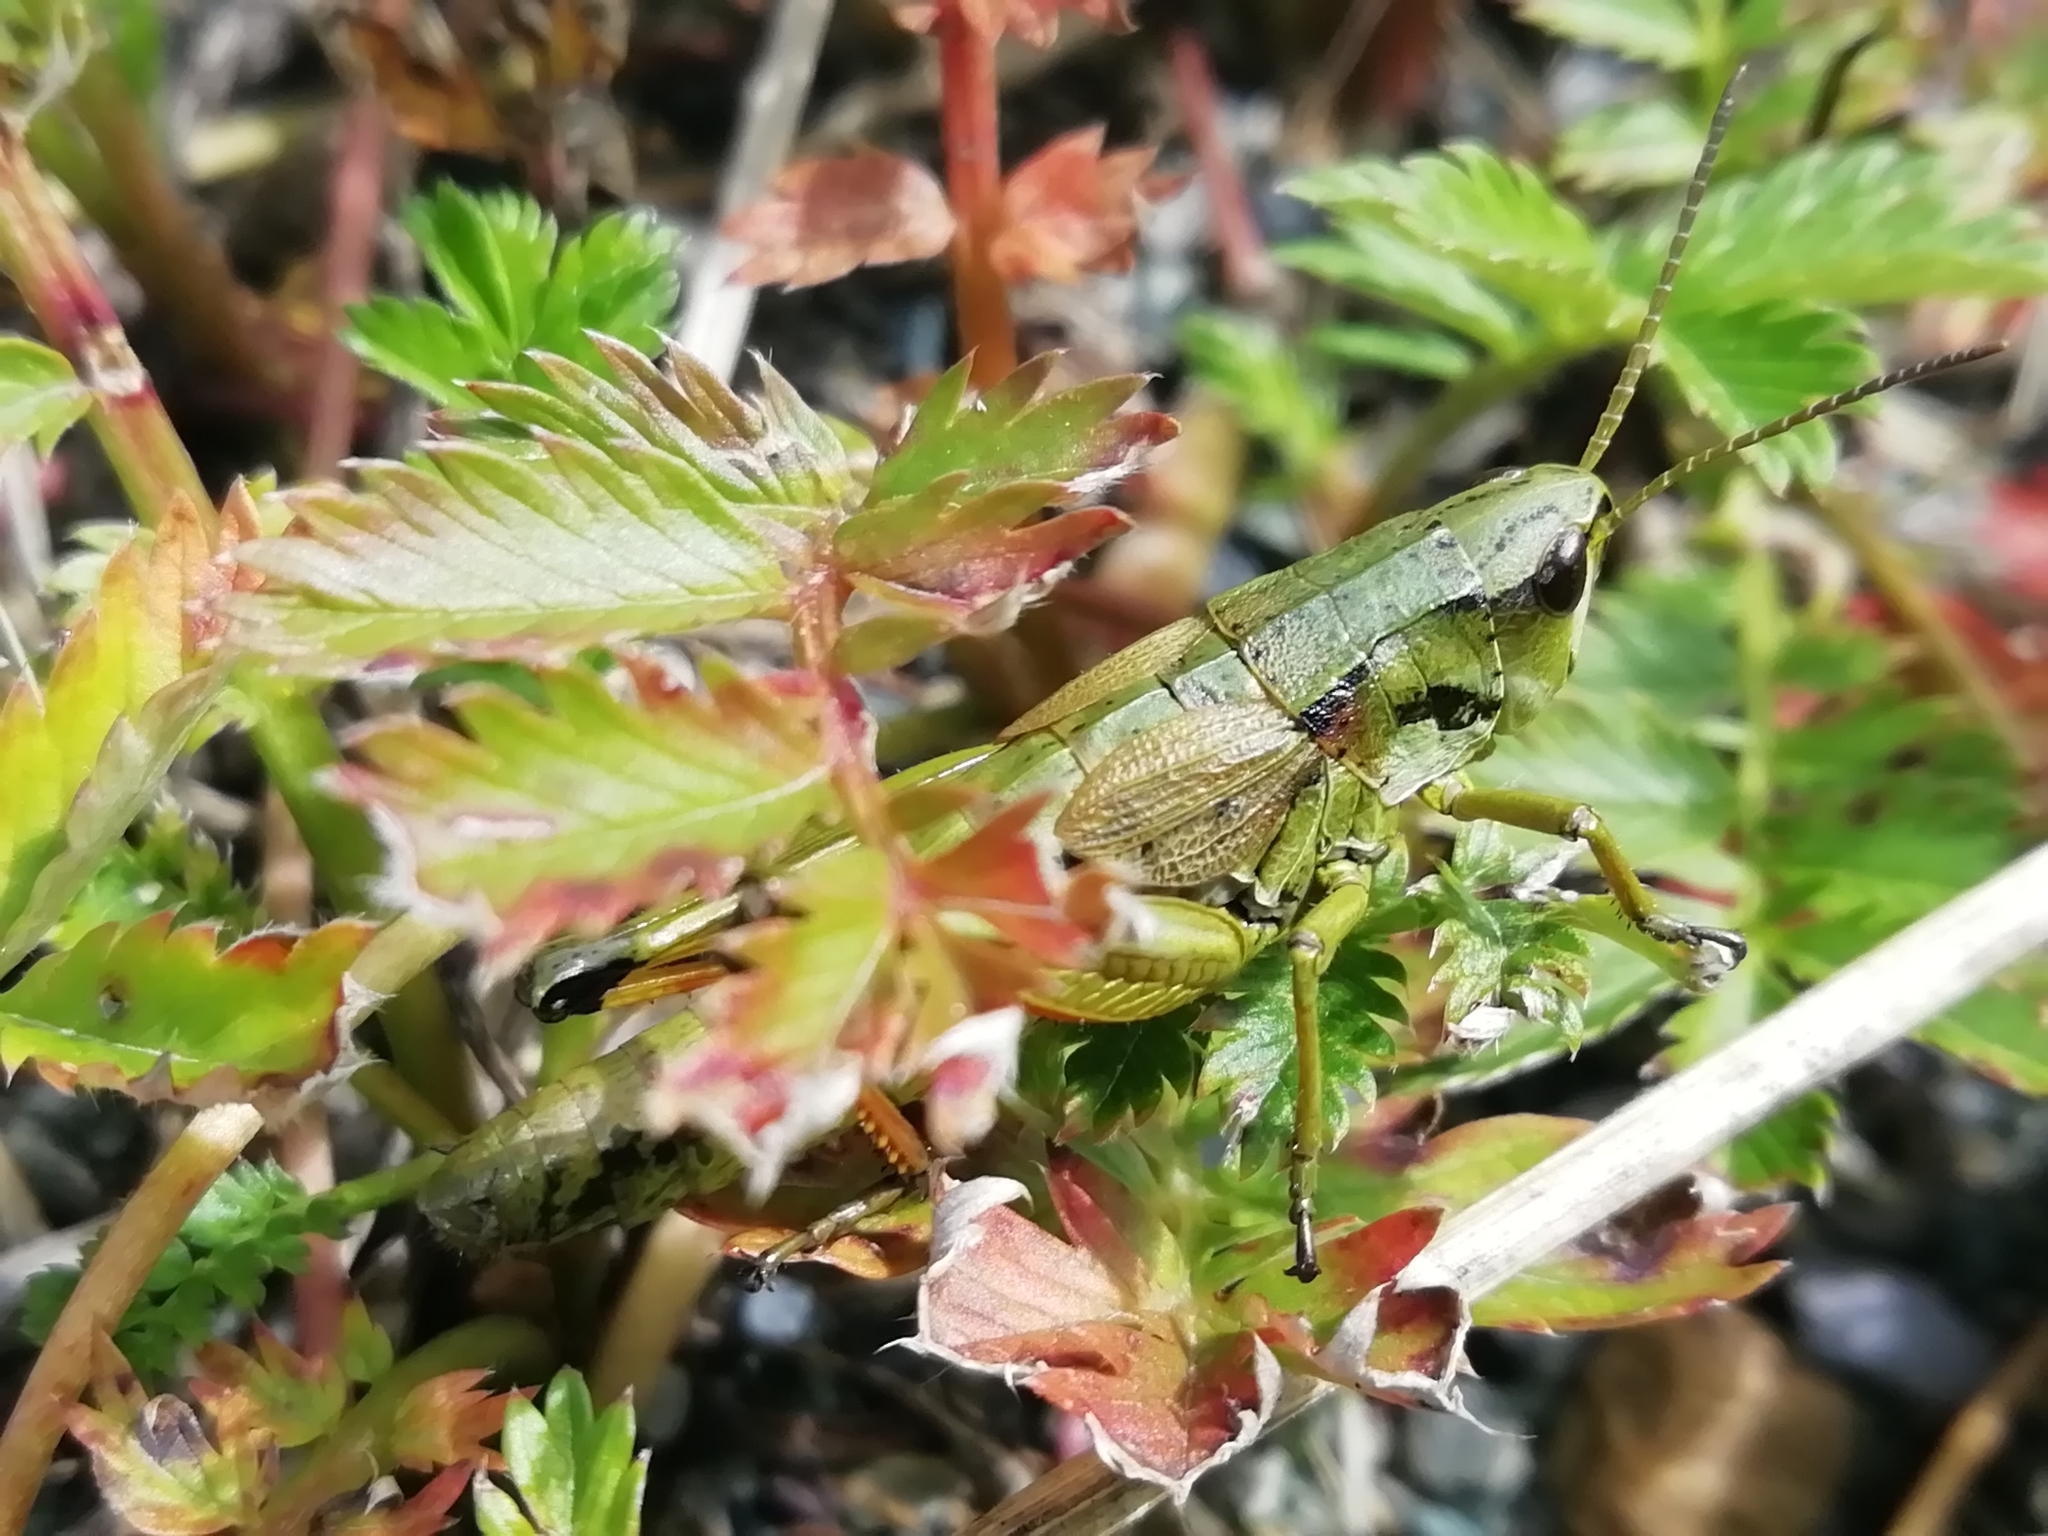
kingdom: Animalia
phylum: Arthropoda
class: Insecta
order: Orthoptera
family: Acrididae
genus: Podismopsis
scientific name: Podismopsis poppiusi
